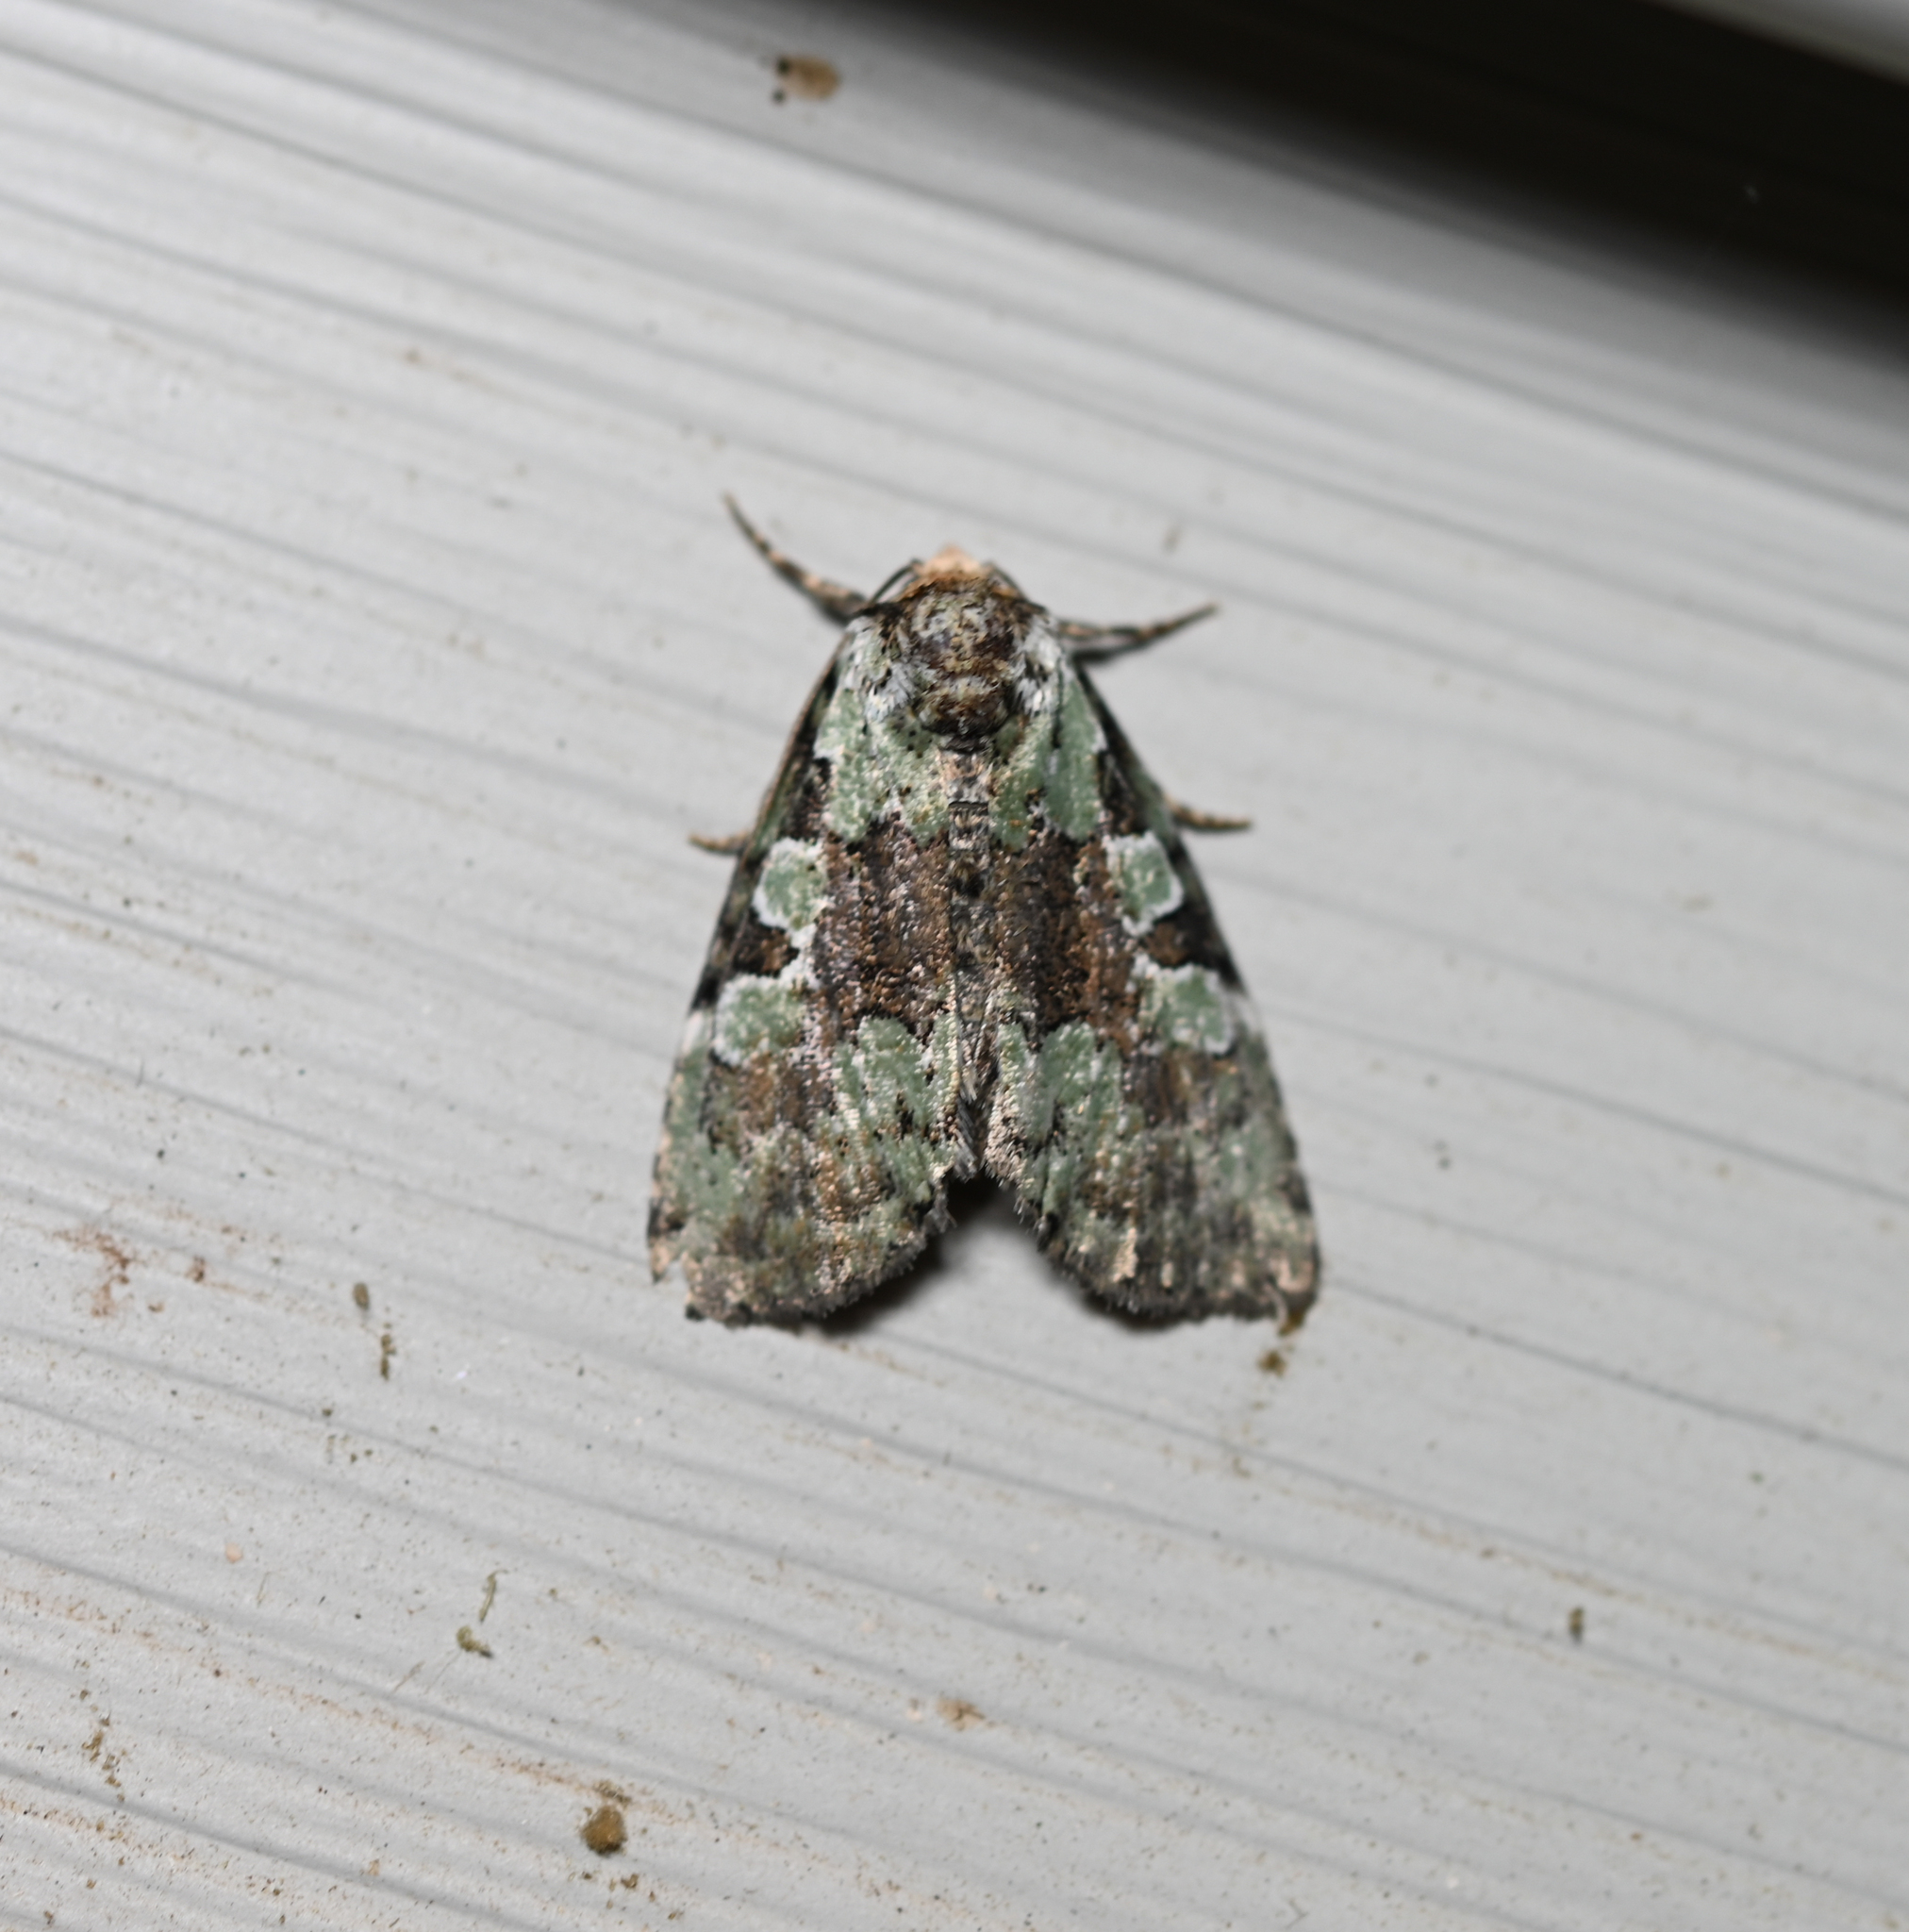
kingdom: Animalia
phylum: Arthropoda
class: Insecta
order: Lepidoptera
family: Noctuidae
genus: Leuconycta
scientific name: Leuconycta lepidula
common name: Marbled-green leuconycta moth
